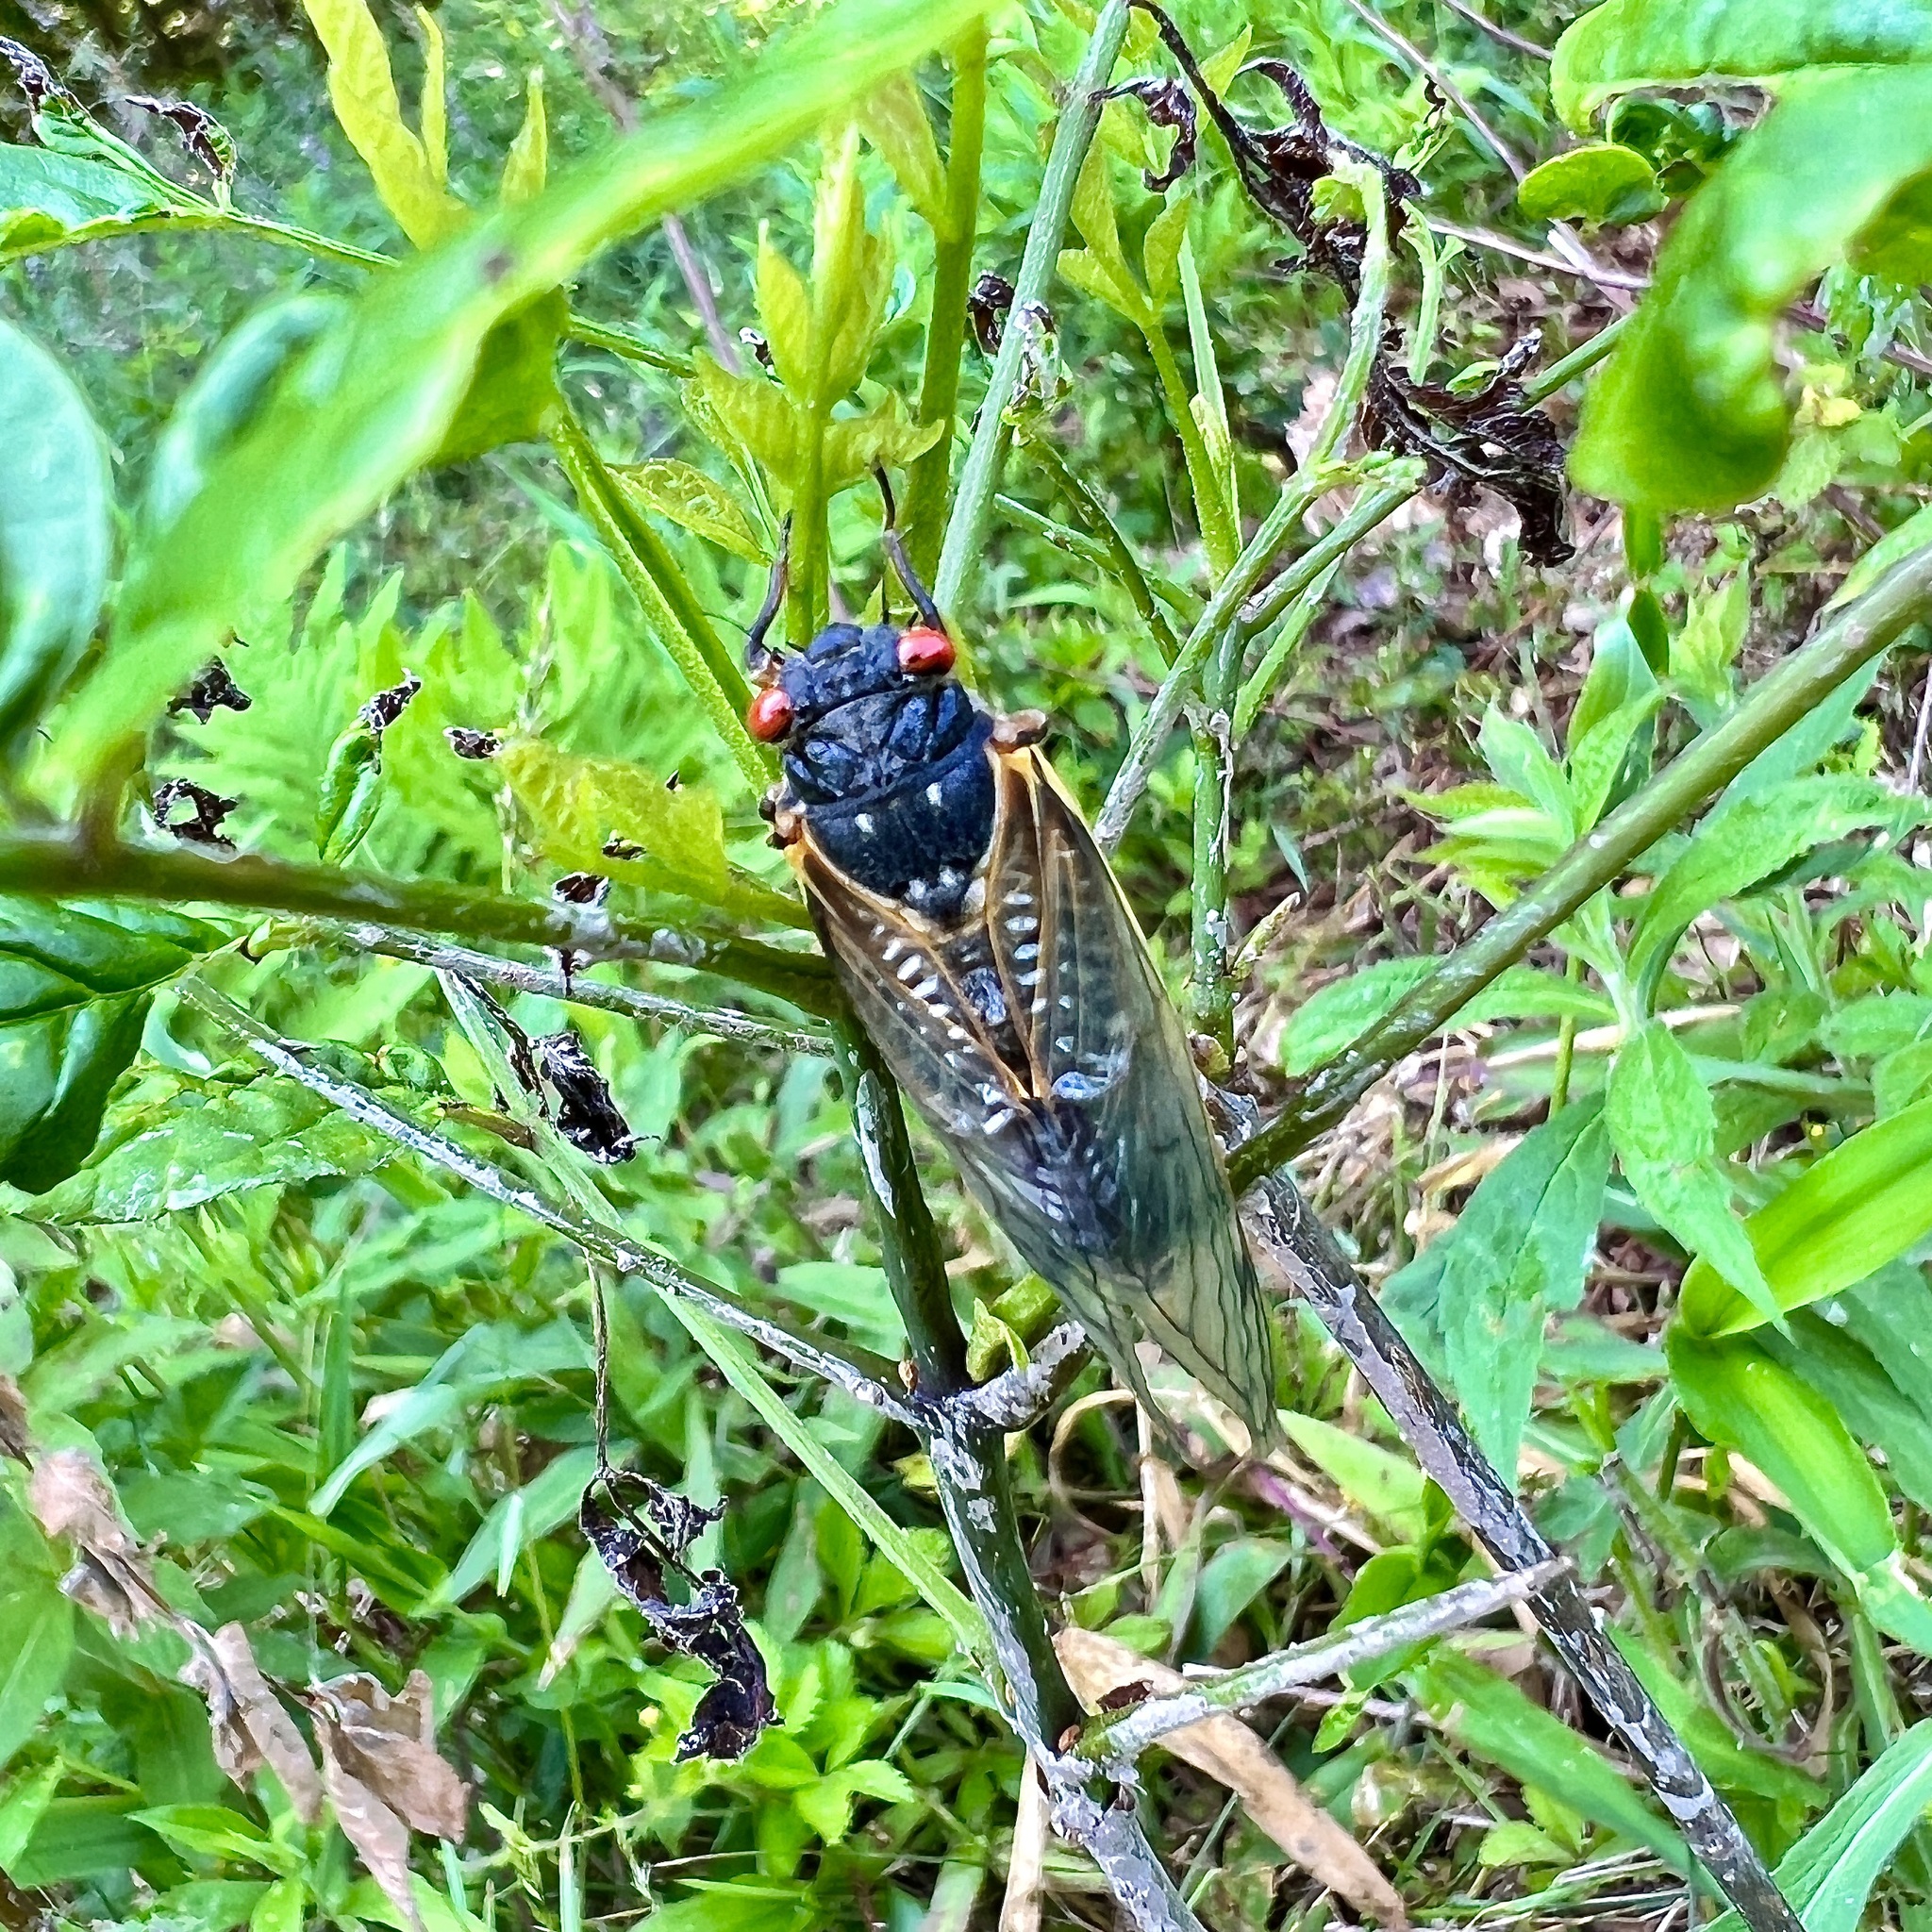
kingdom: Animalia
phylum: Arthropoda
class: Insecta
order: Hemiptera
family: Cicadidae
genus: Magicicada
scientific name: Magicicada septendecim
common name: Periodical cicada
